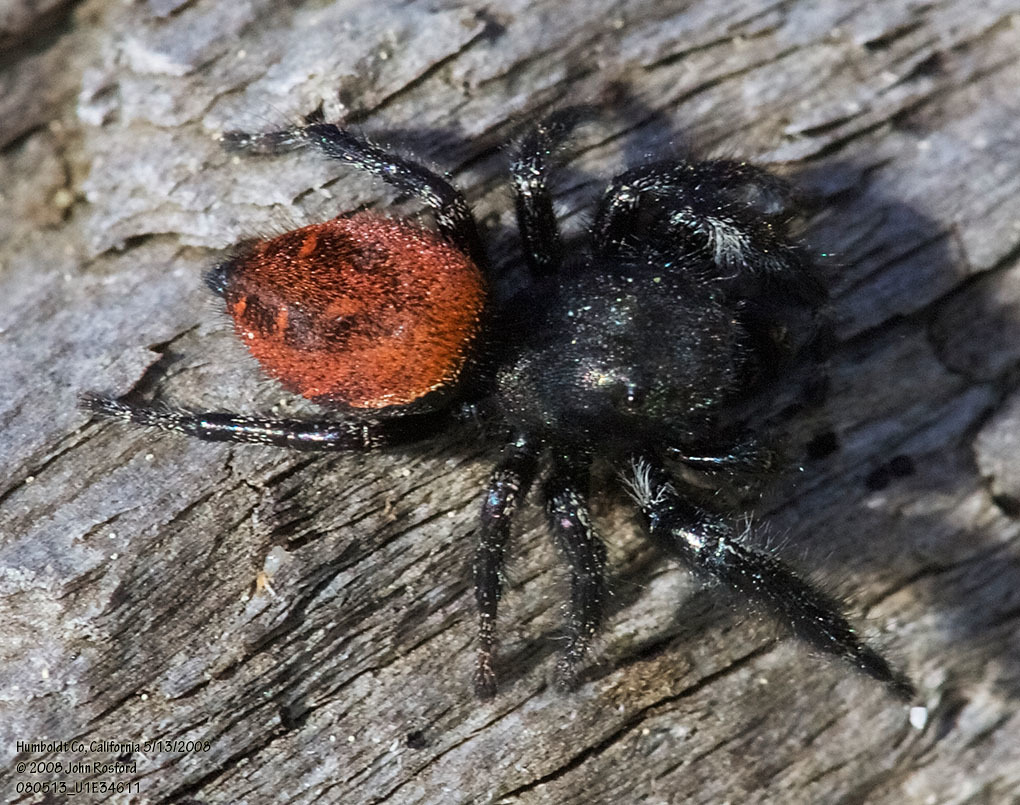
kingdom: Animalia
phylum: Arthropoda
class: Arachnida
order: Araneae
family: Salticidae
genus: Phidippus
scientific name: Phidippus johnsoni
